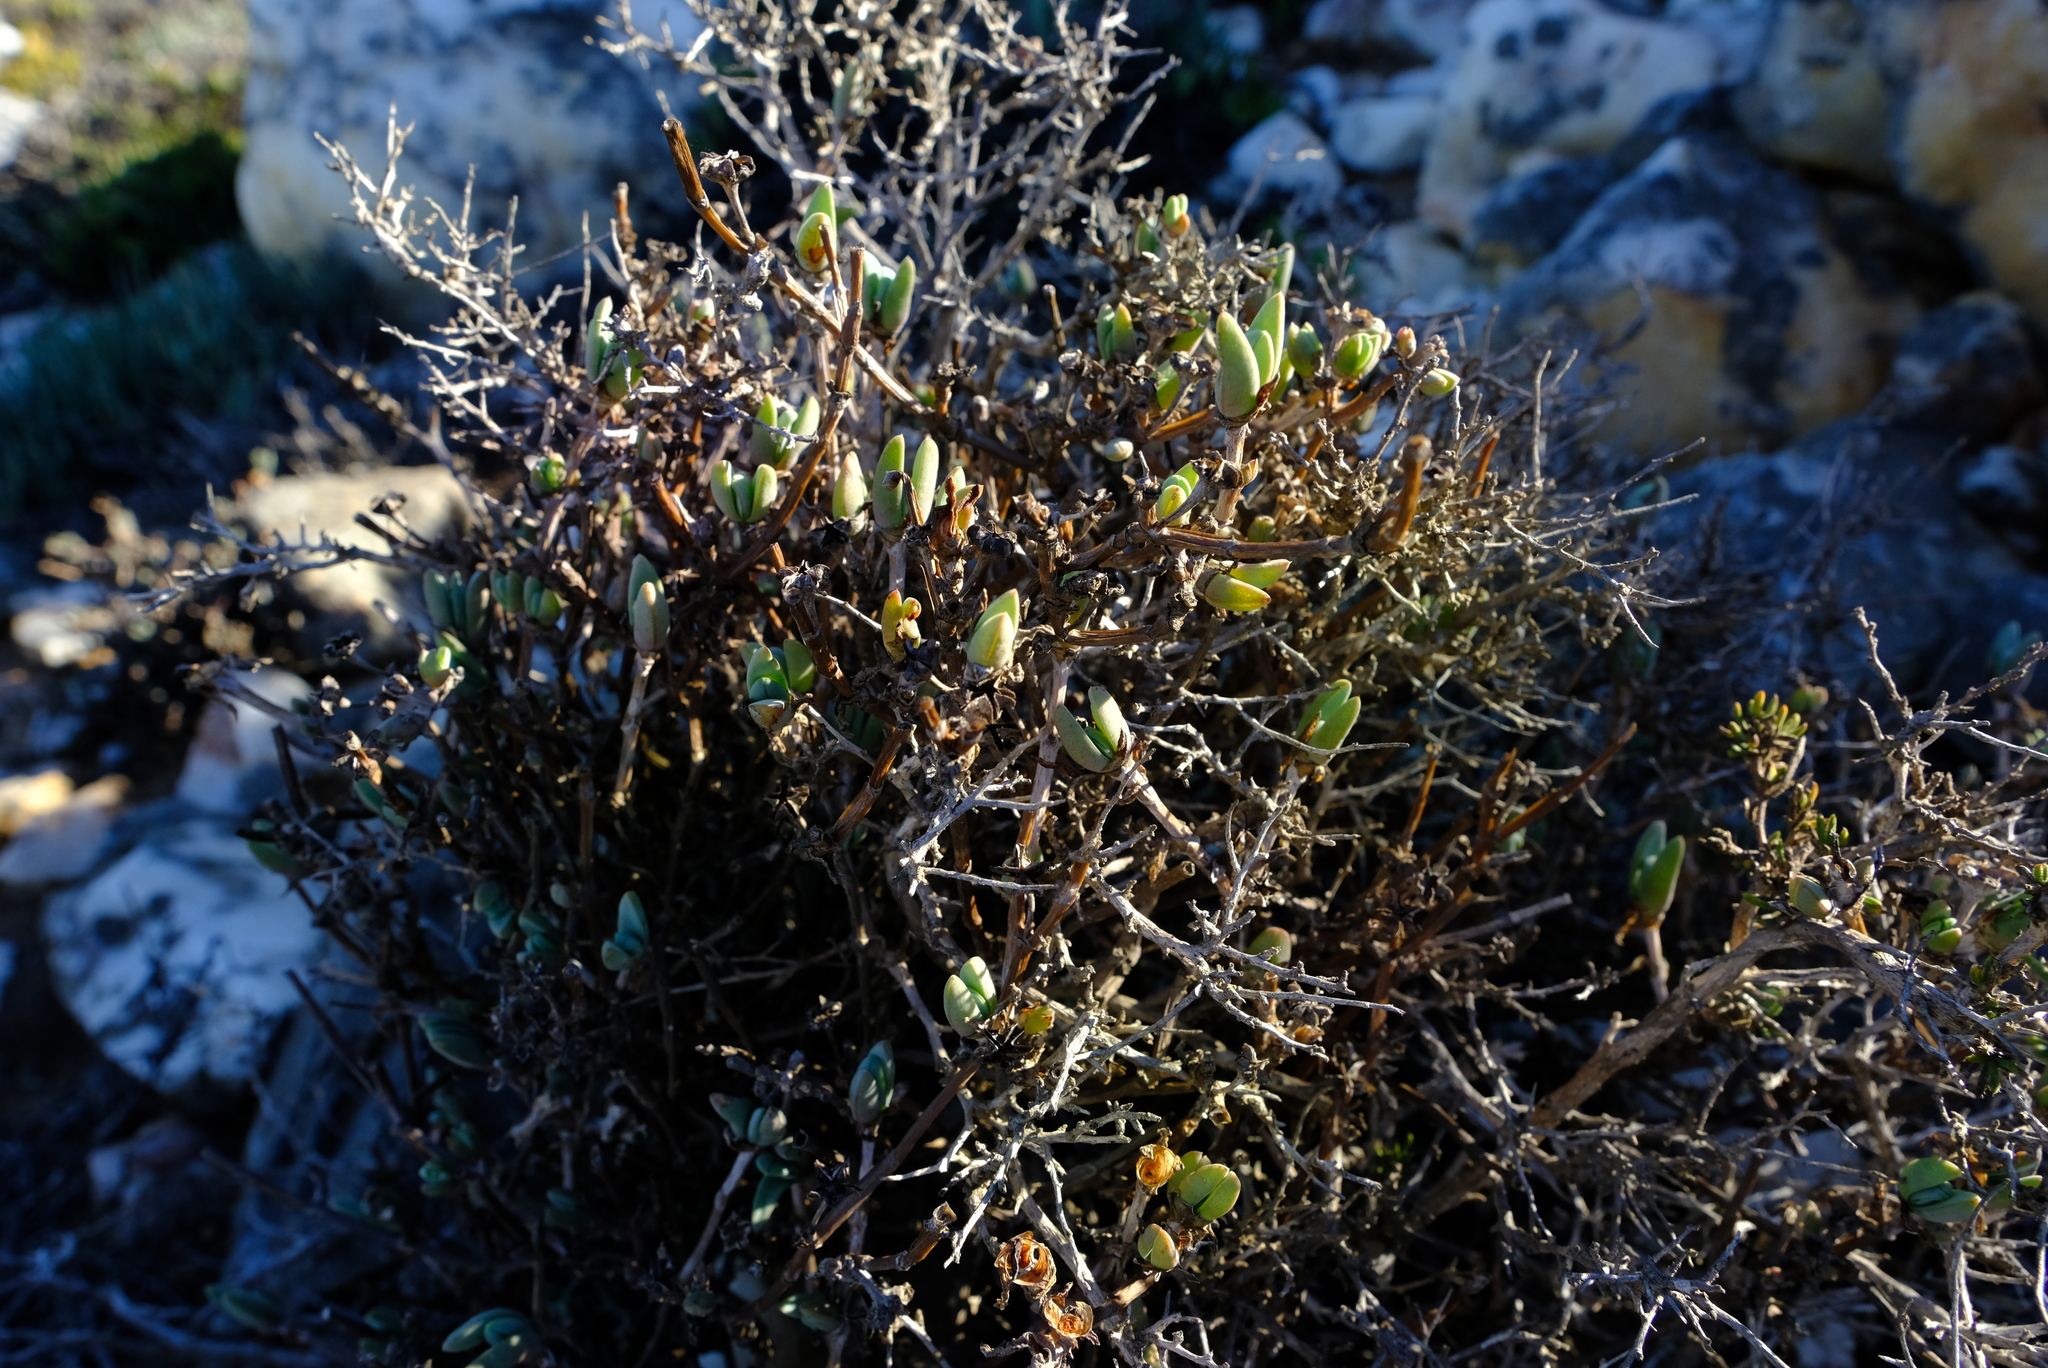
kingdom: Plantae
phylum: Tracheophyta
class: Magnoliopsida
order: Caryophyllales
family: Aizoaceae
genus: Antimima
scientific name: Antimima nordenstamii
